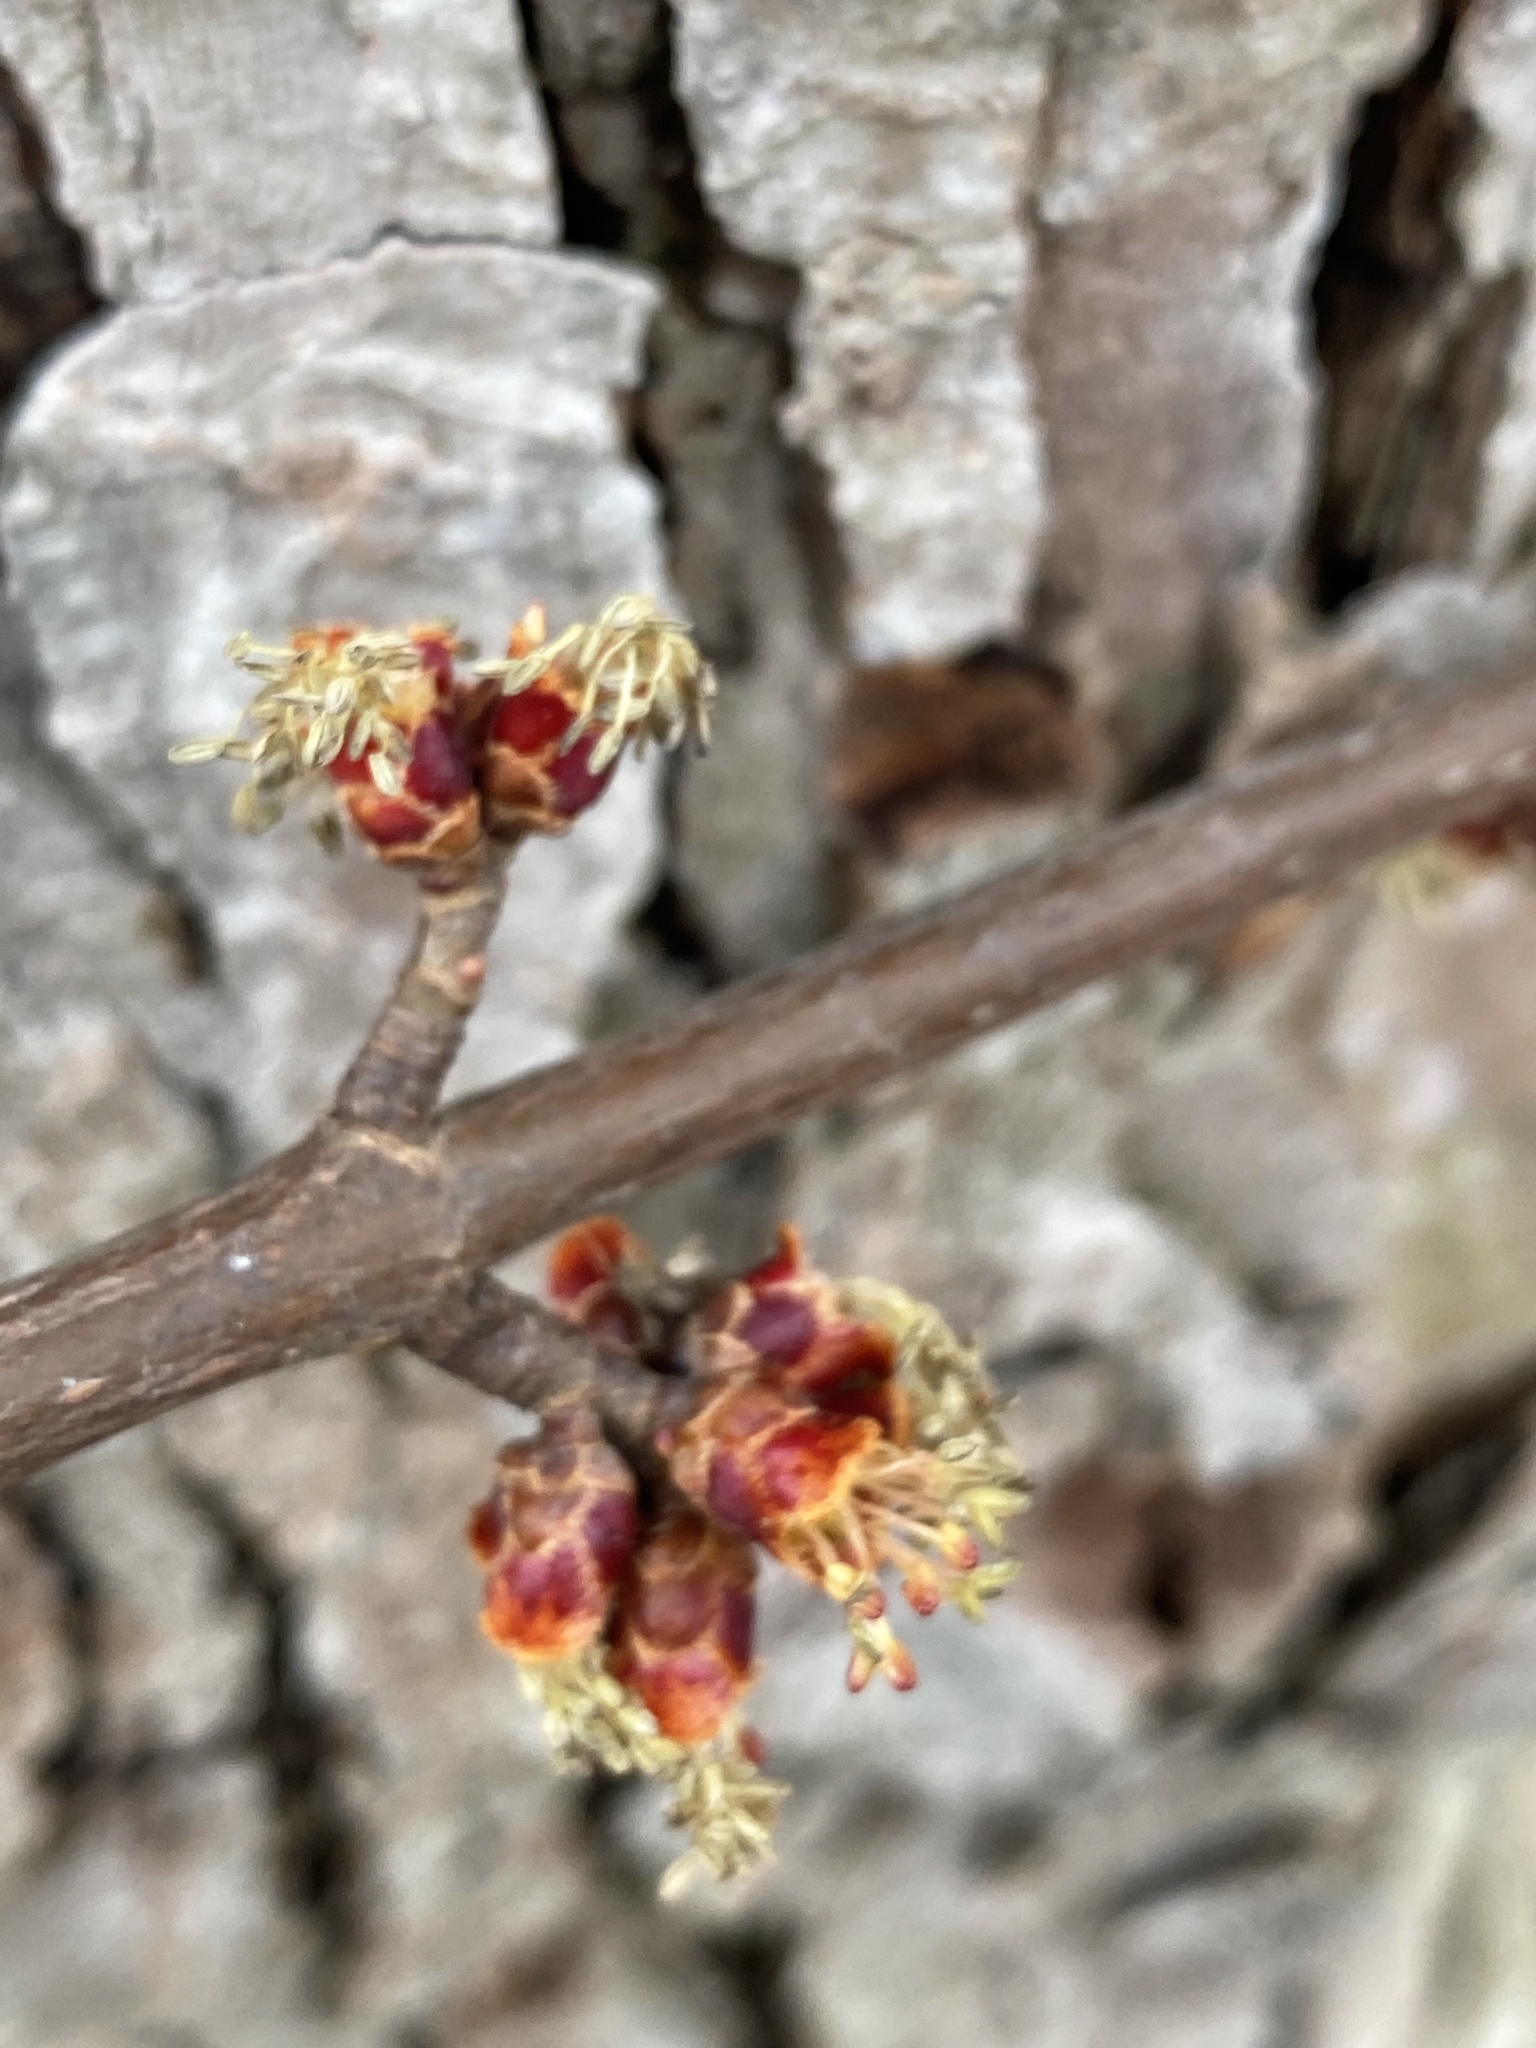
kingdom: Plantae
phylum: Tracheophyta
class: Magnoliopsida
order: Sapindales
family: Sapindaceae
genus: Acer
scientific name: Acer saccharinum
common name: Silver maple
